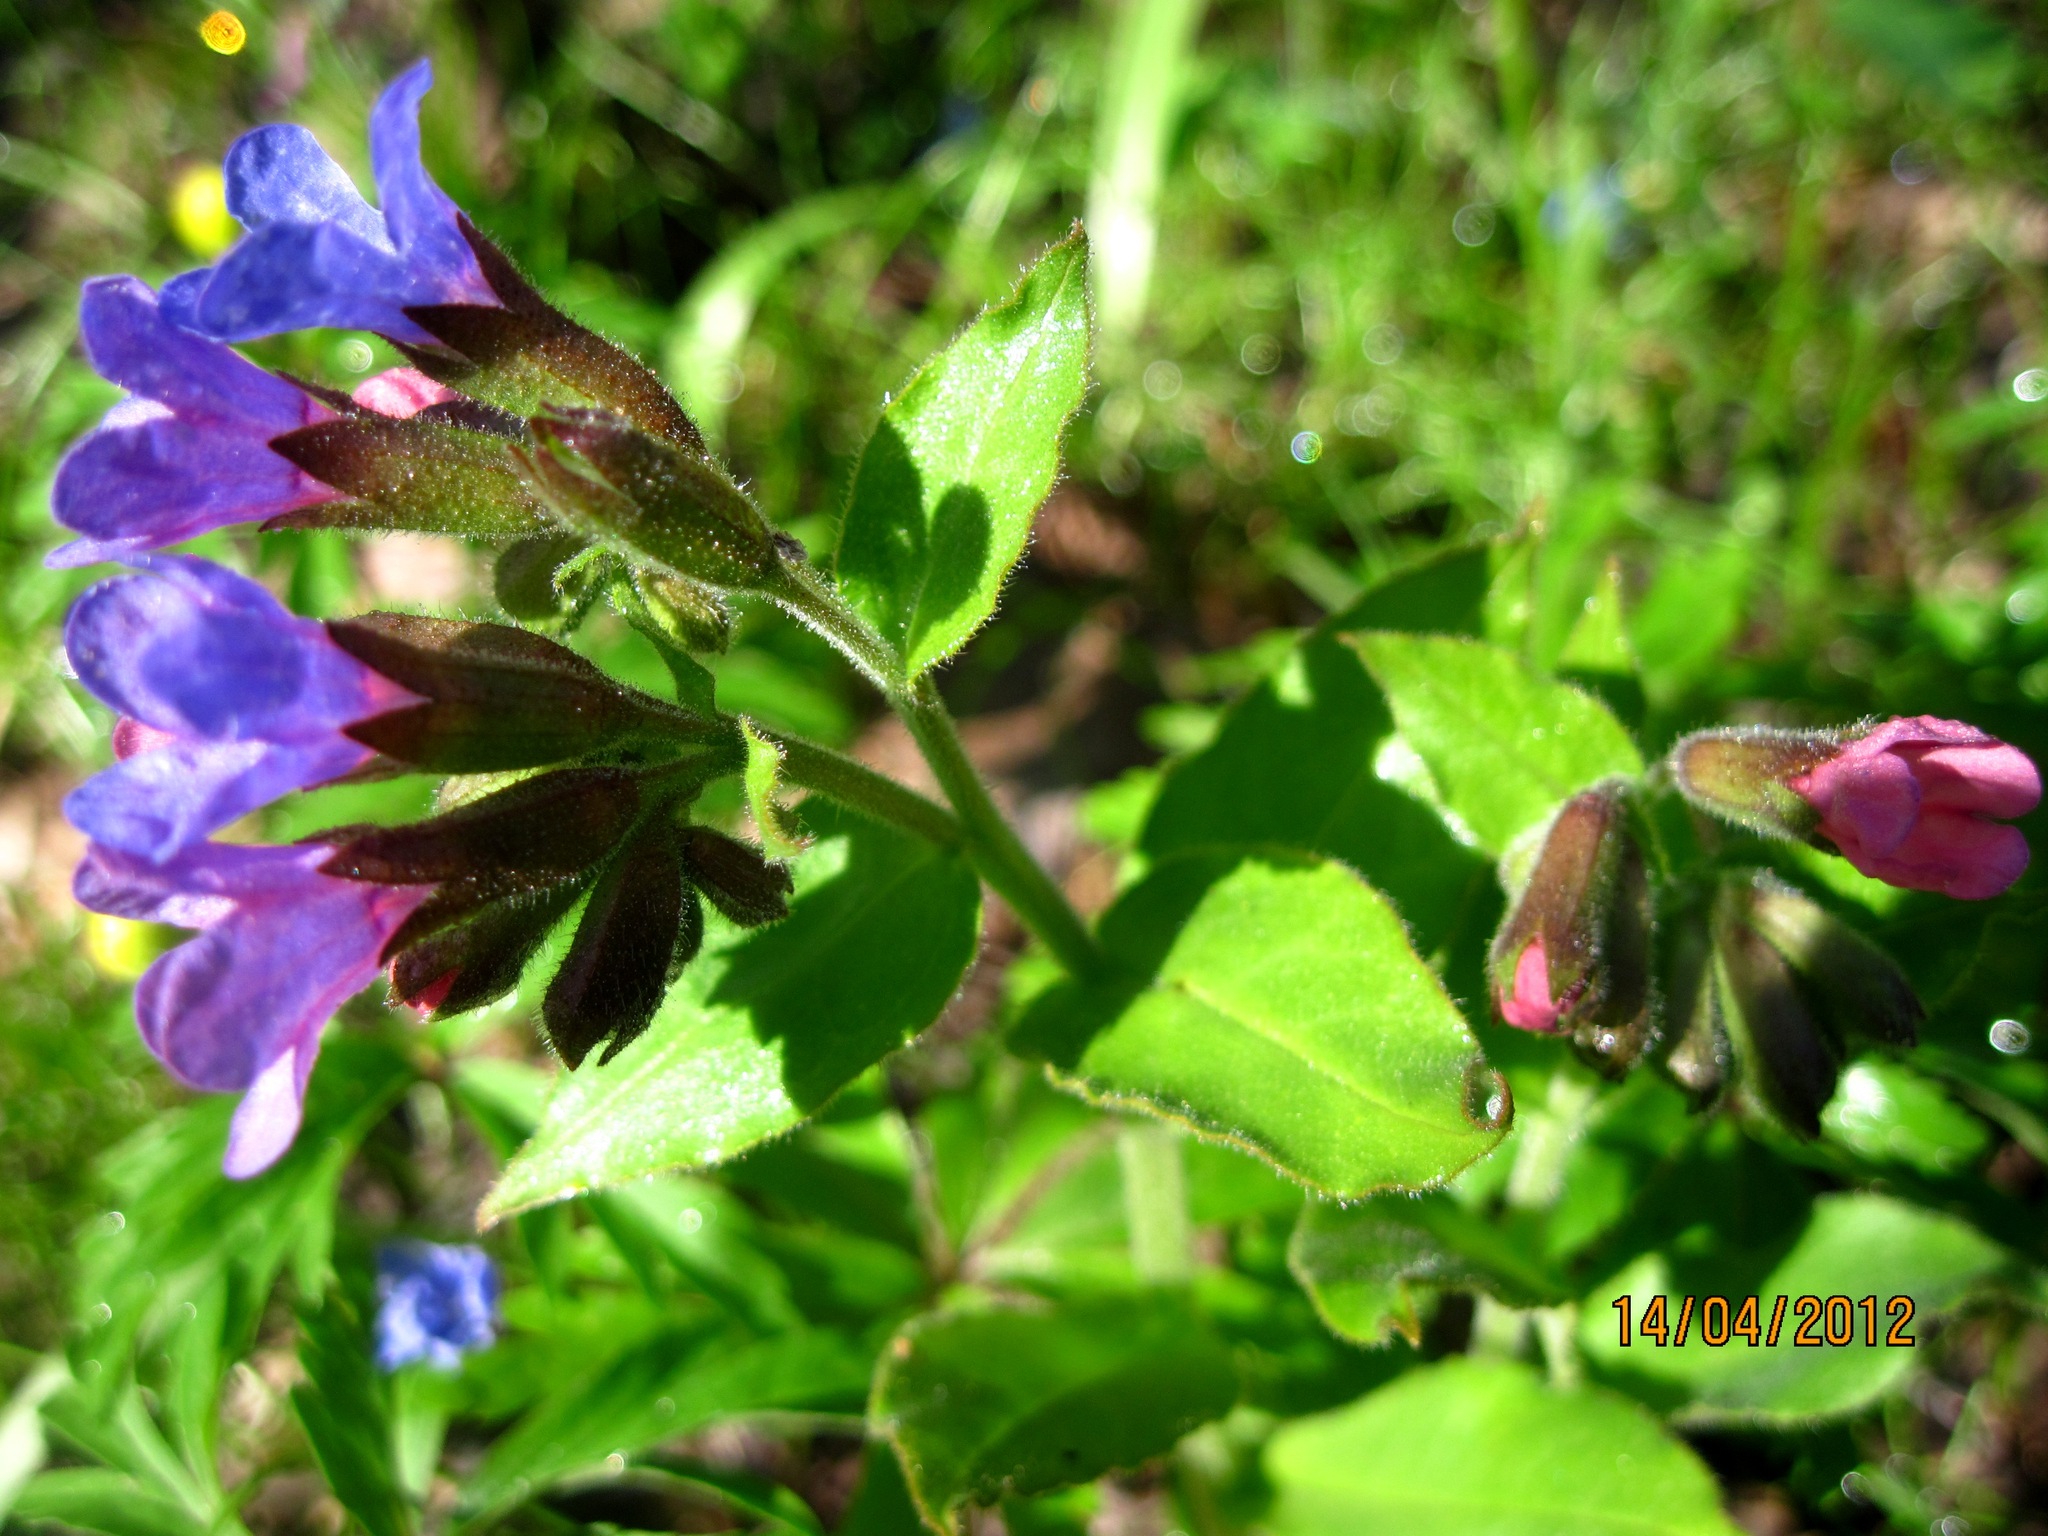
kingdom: Plantae
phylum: Tracheophyta
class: Magnoliopsida
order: Boraginales
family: Boraginaceae
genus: Pulmonaria
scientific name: Pulmonaria obscura
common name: Suffolk lungwort
